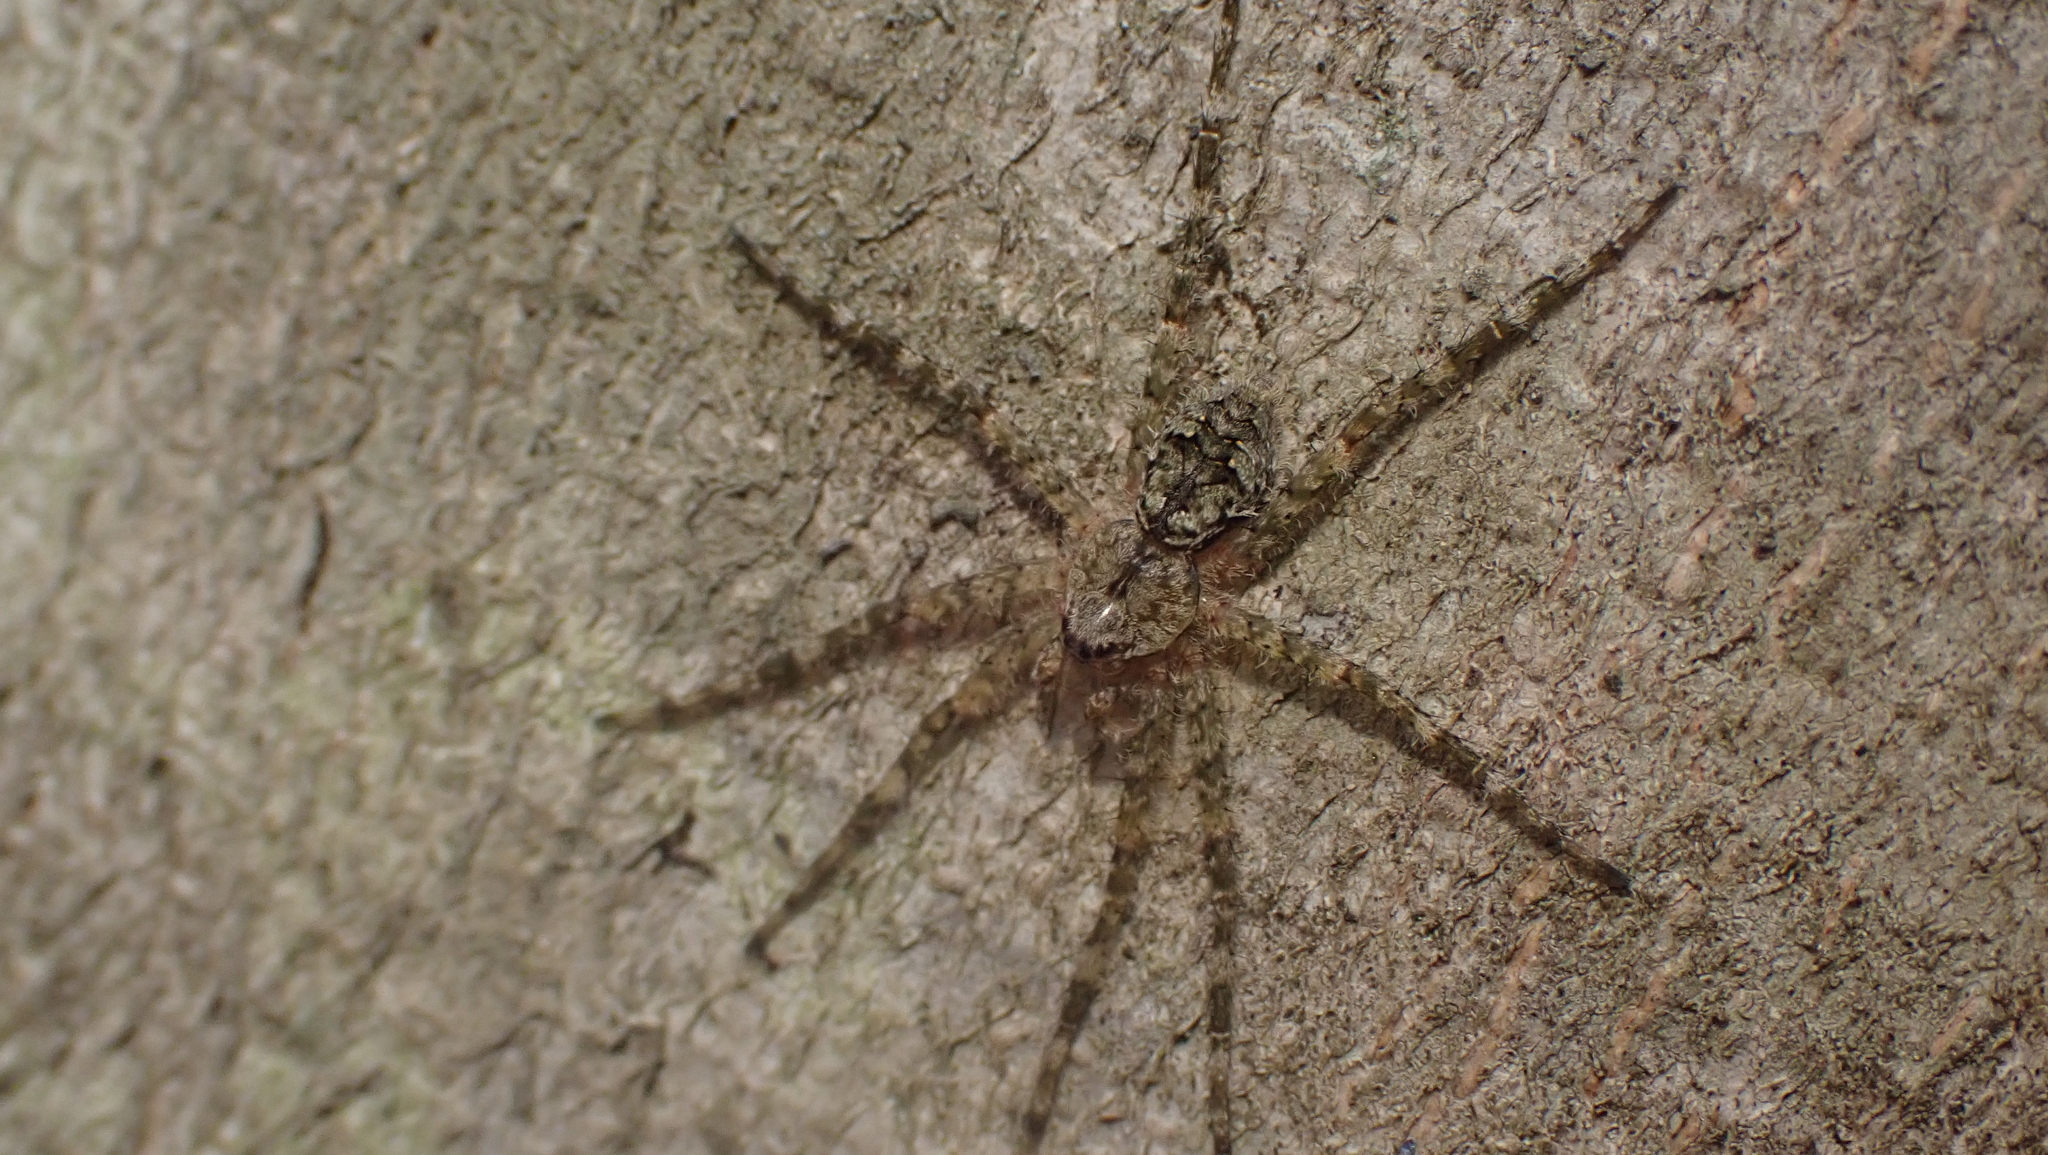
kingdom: Animalia
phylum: Arthropoda
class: Arachnida
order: Araneae
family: Pisauridae
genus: Dolomedes
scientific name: Dolomedes albineus
